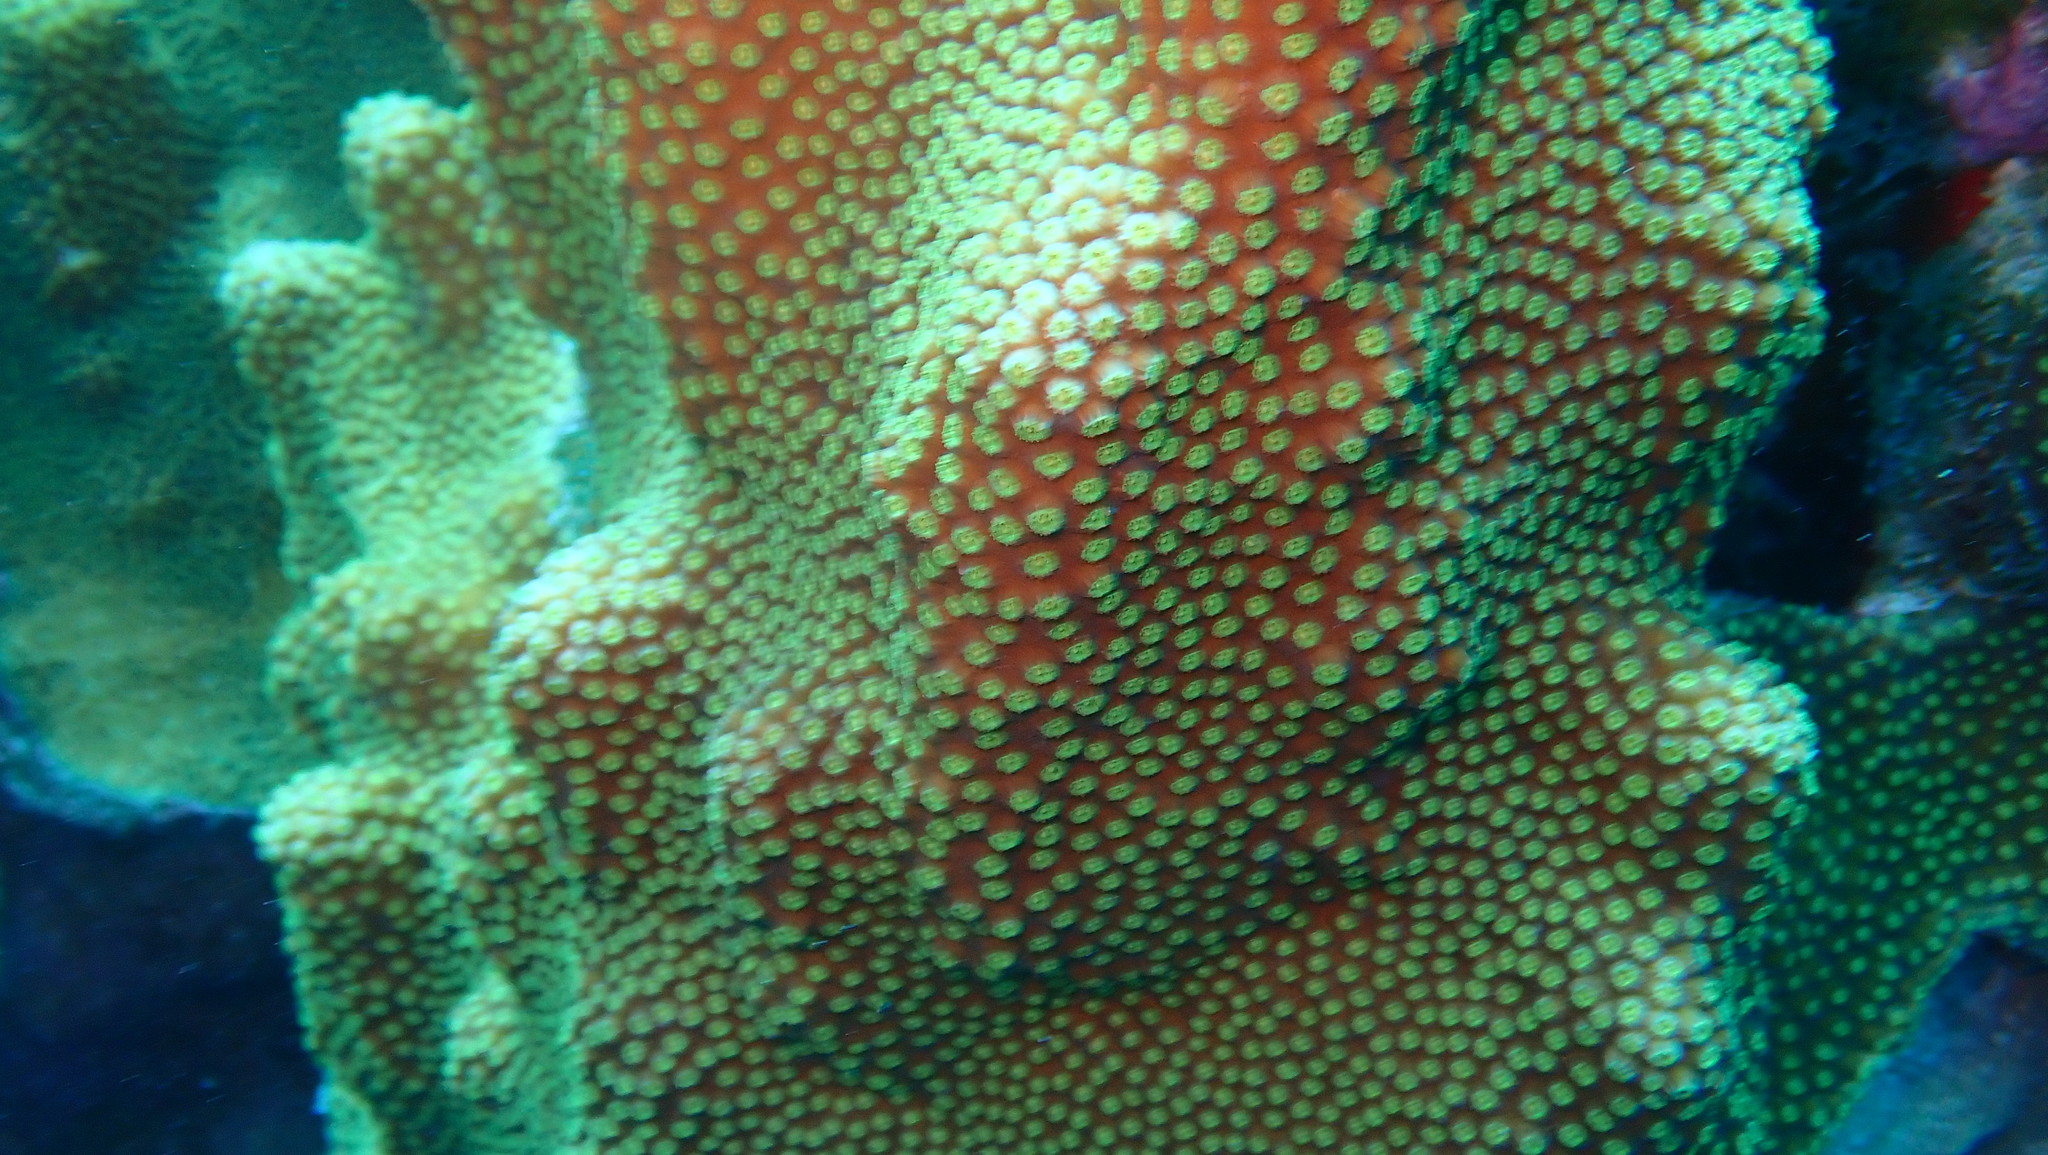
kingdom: Animalia
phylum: Cnidaria
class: Anthozoa
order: Scleractinia
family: Merulinidae
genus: Orbicella
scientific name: Orbicella faveolata
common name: Mountainous star coral
